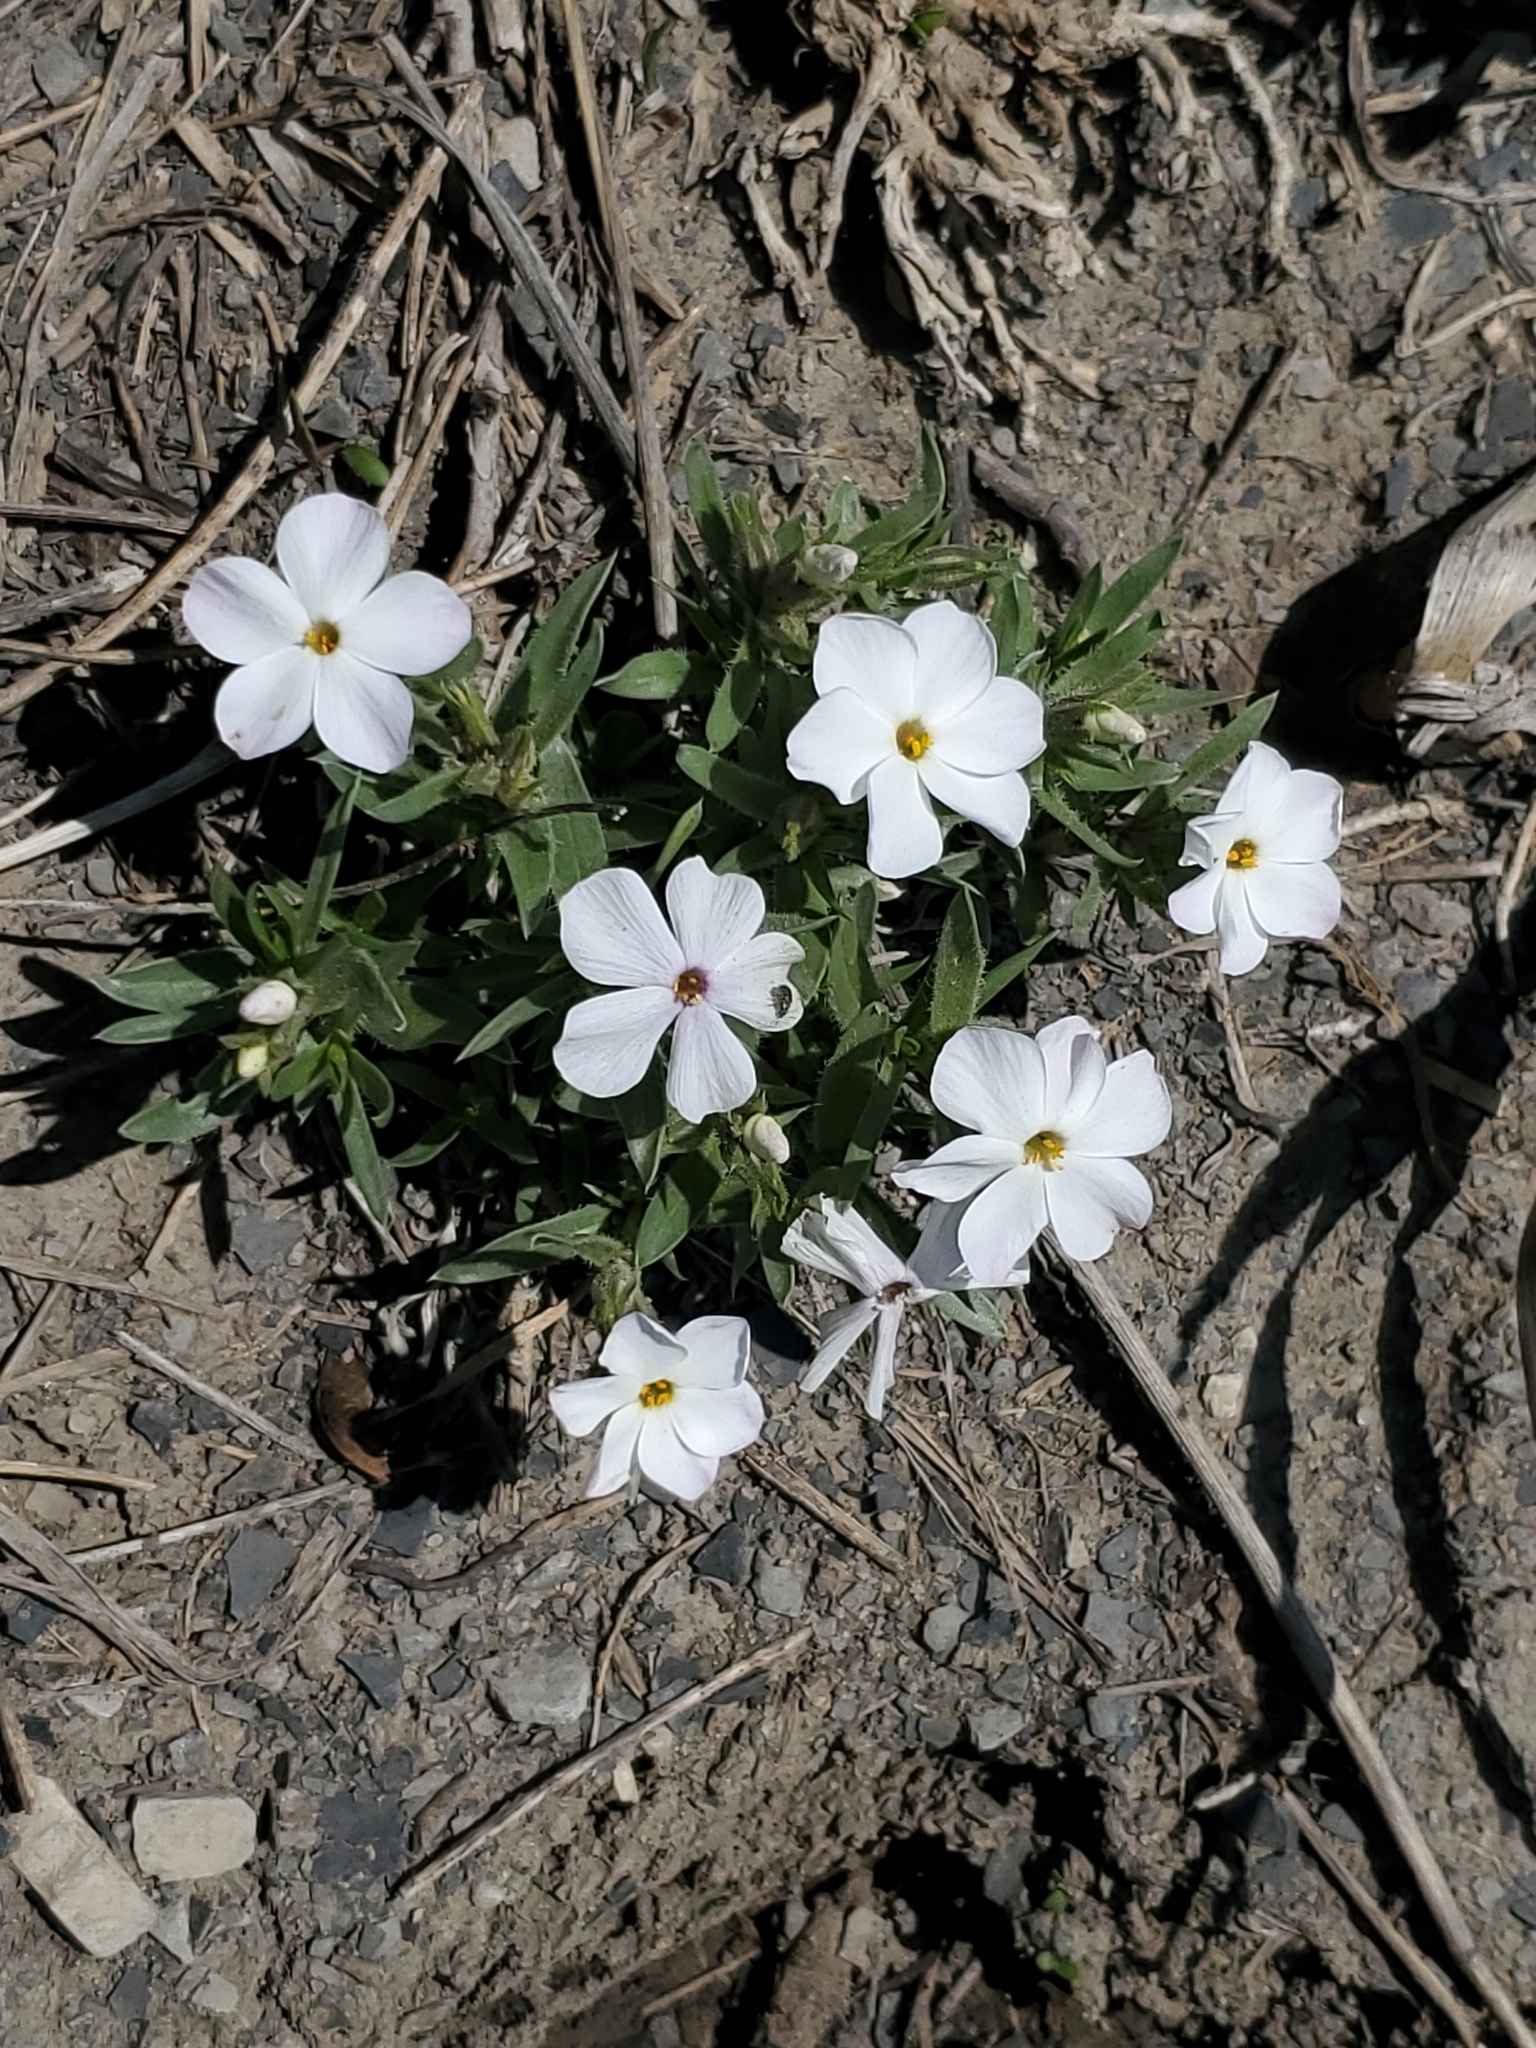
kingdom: Plantae
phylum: Tracheophyta
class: Magnoliopsida
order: Ericales
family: Polemoniaceae
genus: Phlox
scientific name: Phlox alyssifolia
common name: Blue phlox
